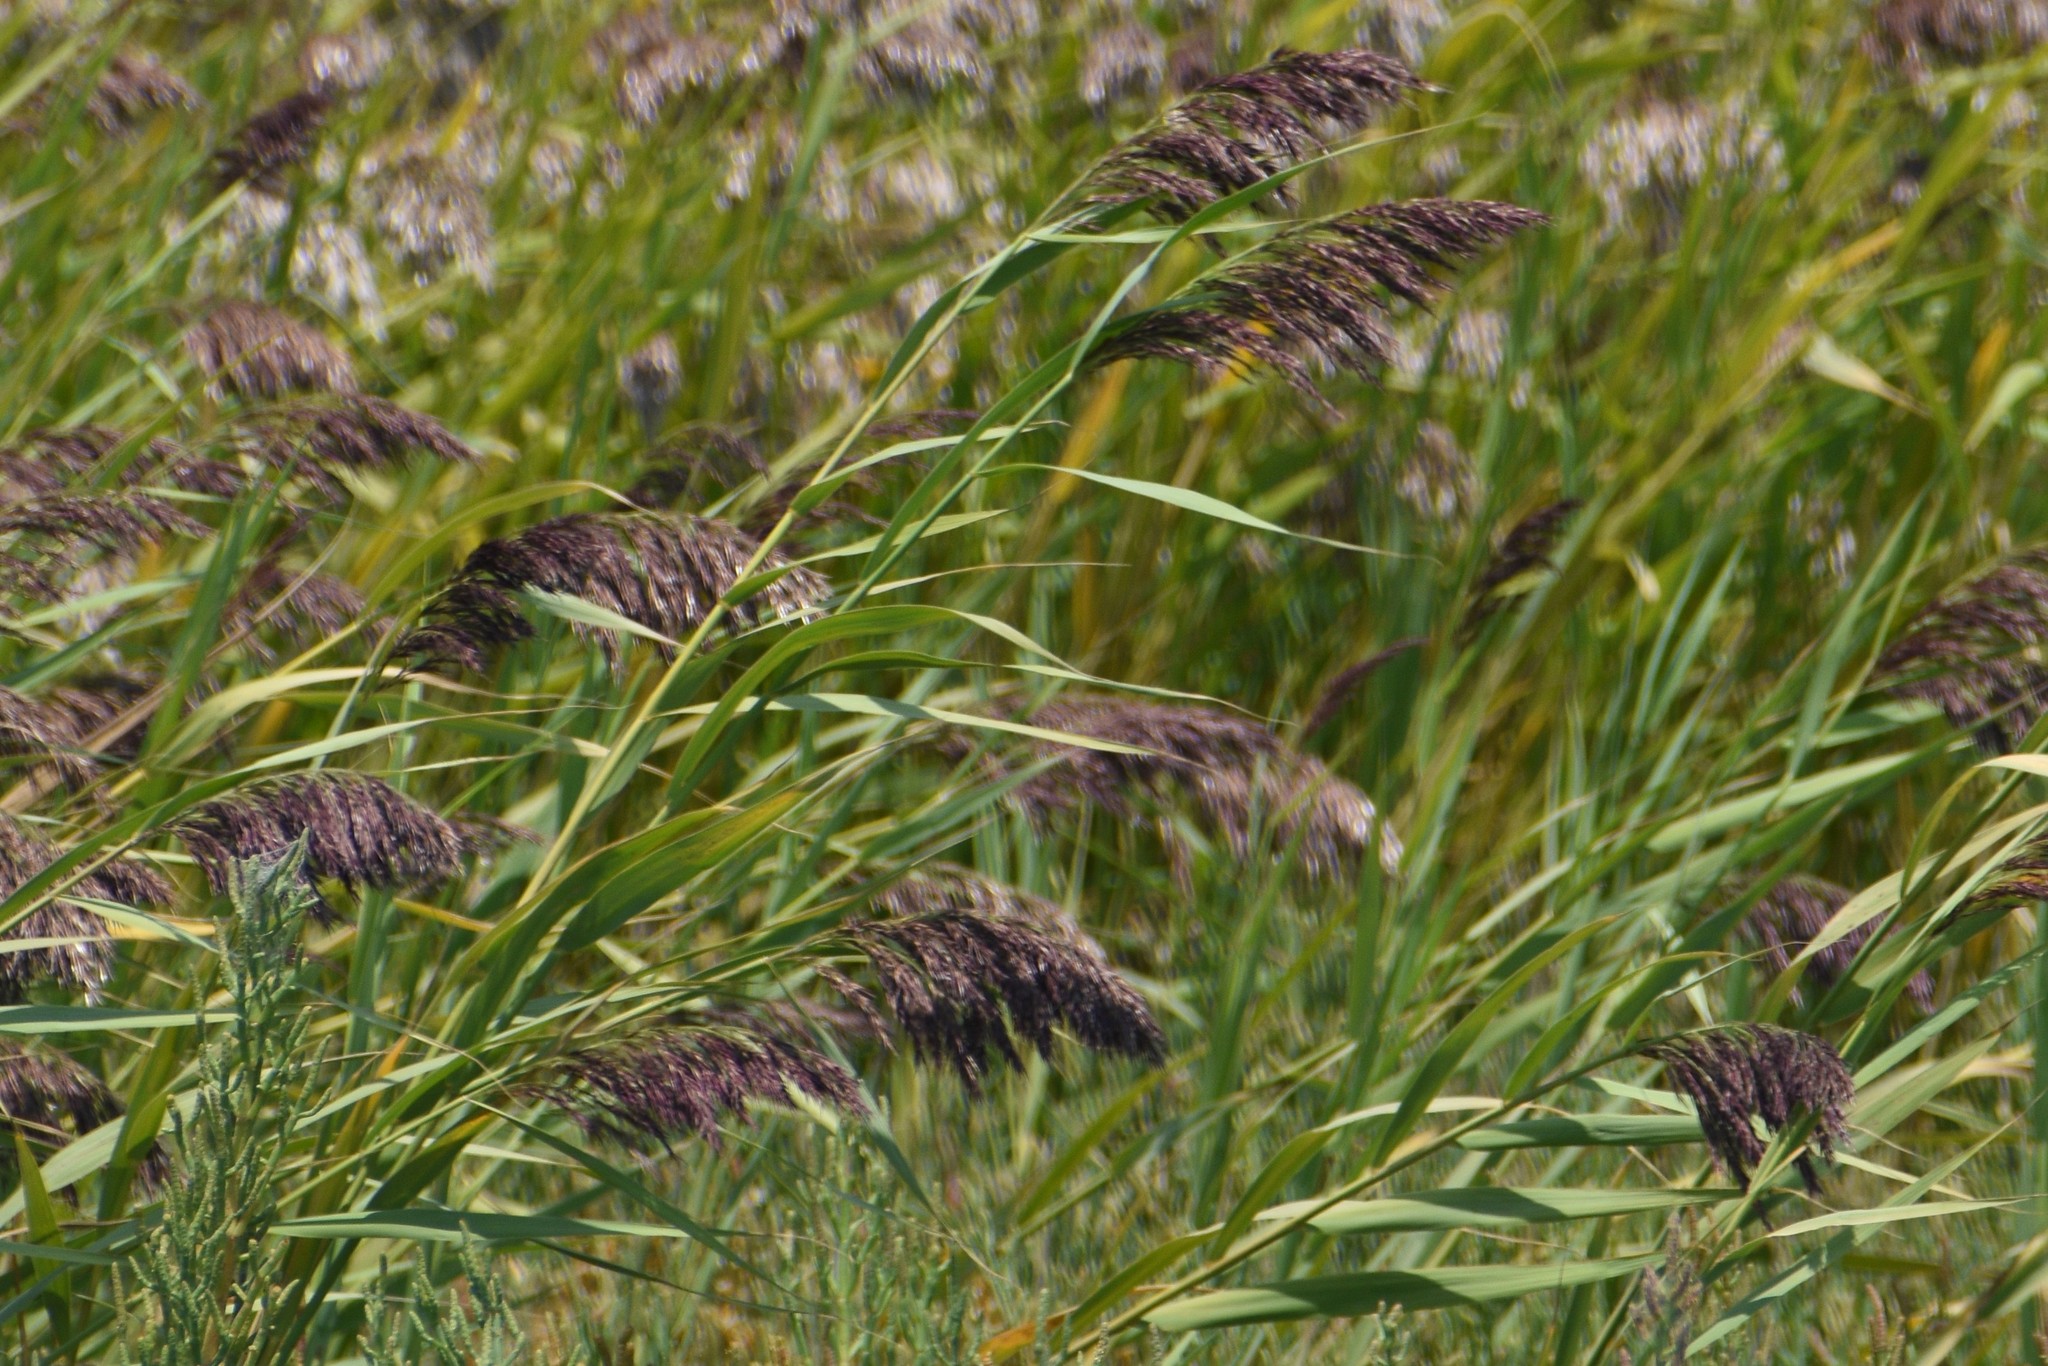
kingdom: Plantae
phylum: Tracheophyta
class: Liliopsida
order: Poales
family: Poaceae
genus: Phragmites
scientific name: Phragmites australis
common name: Common reed
